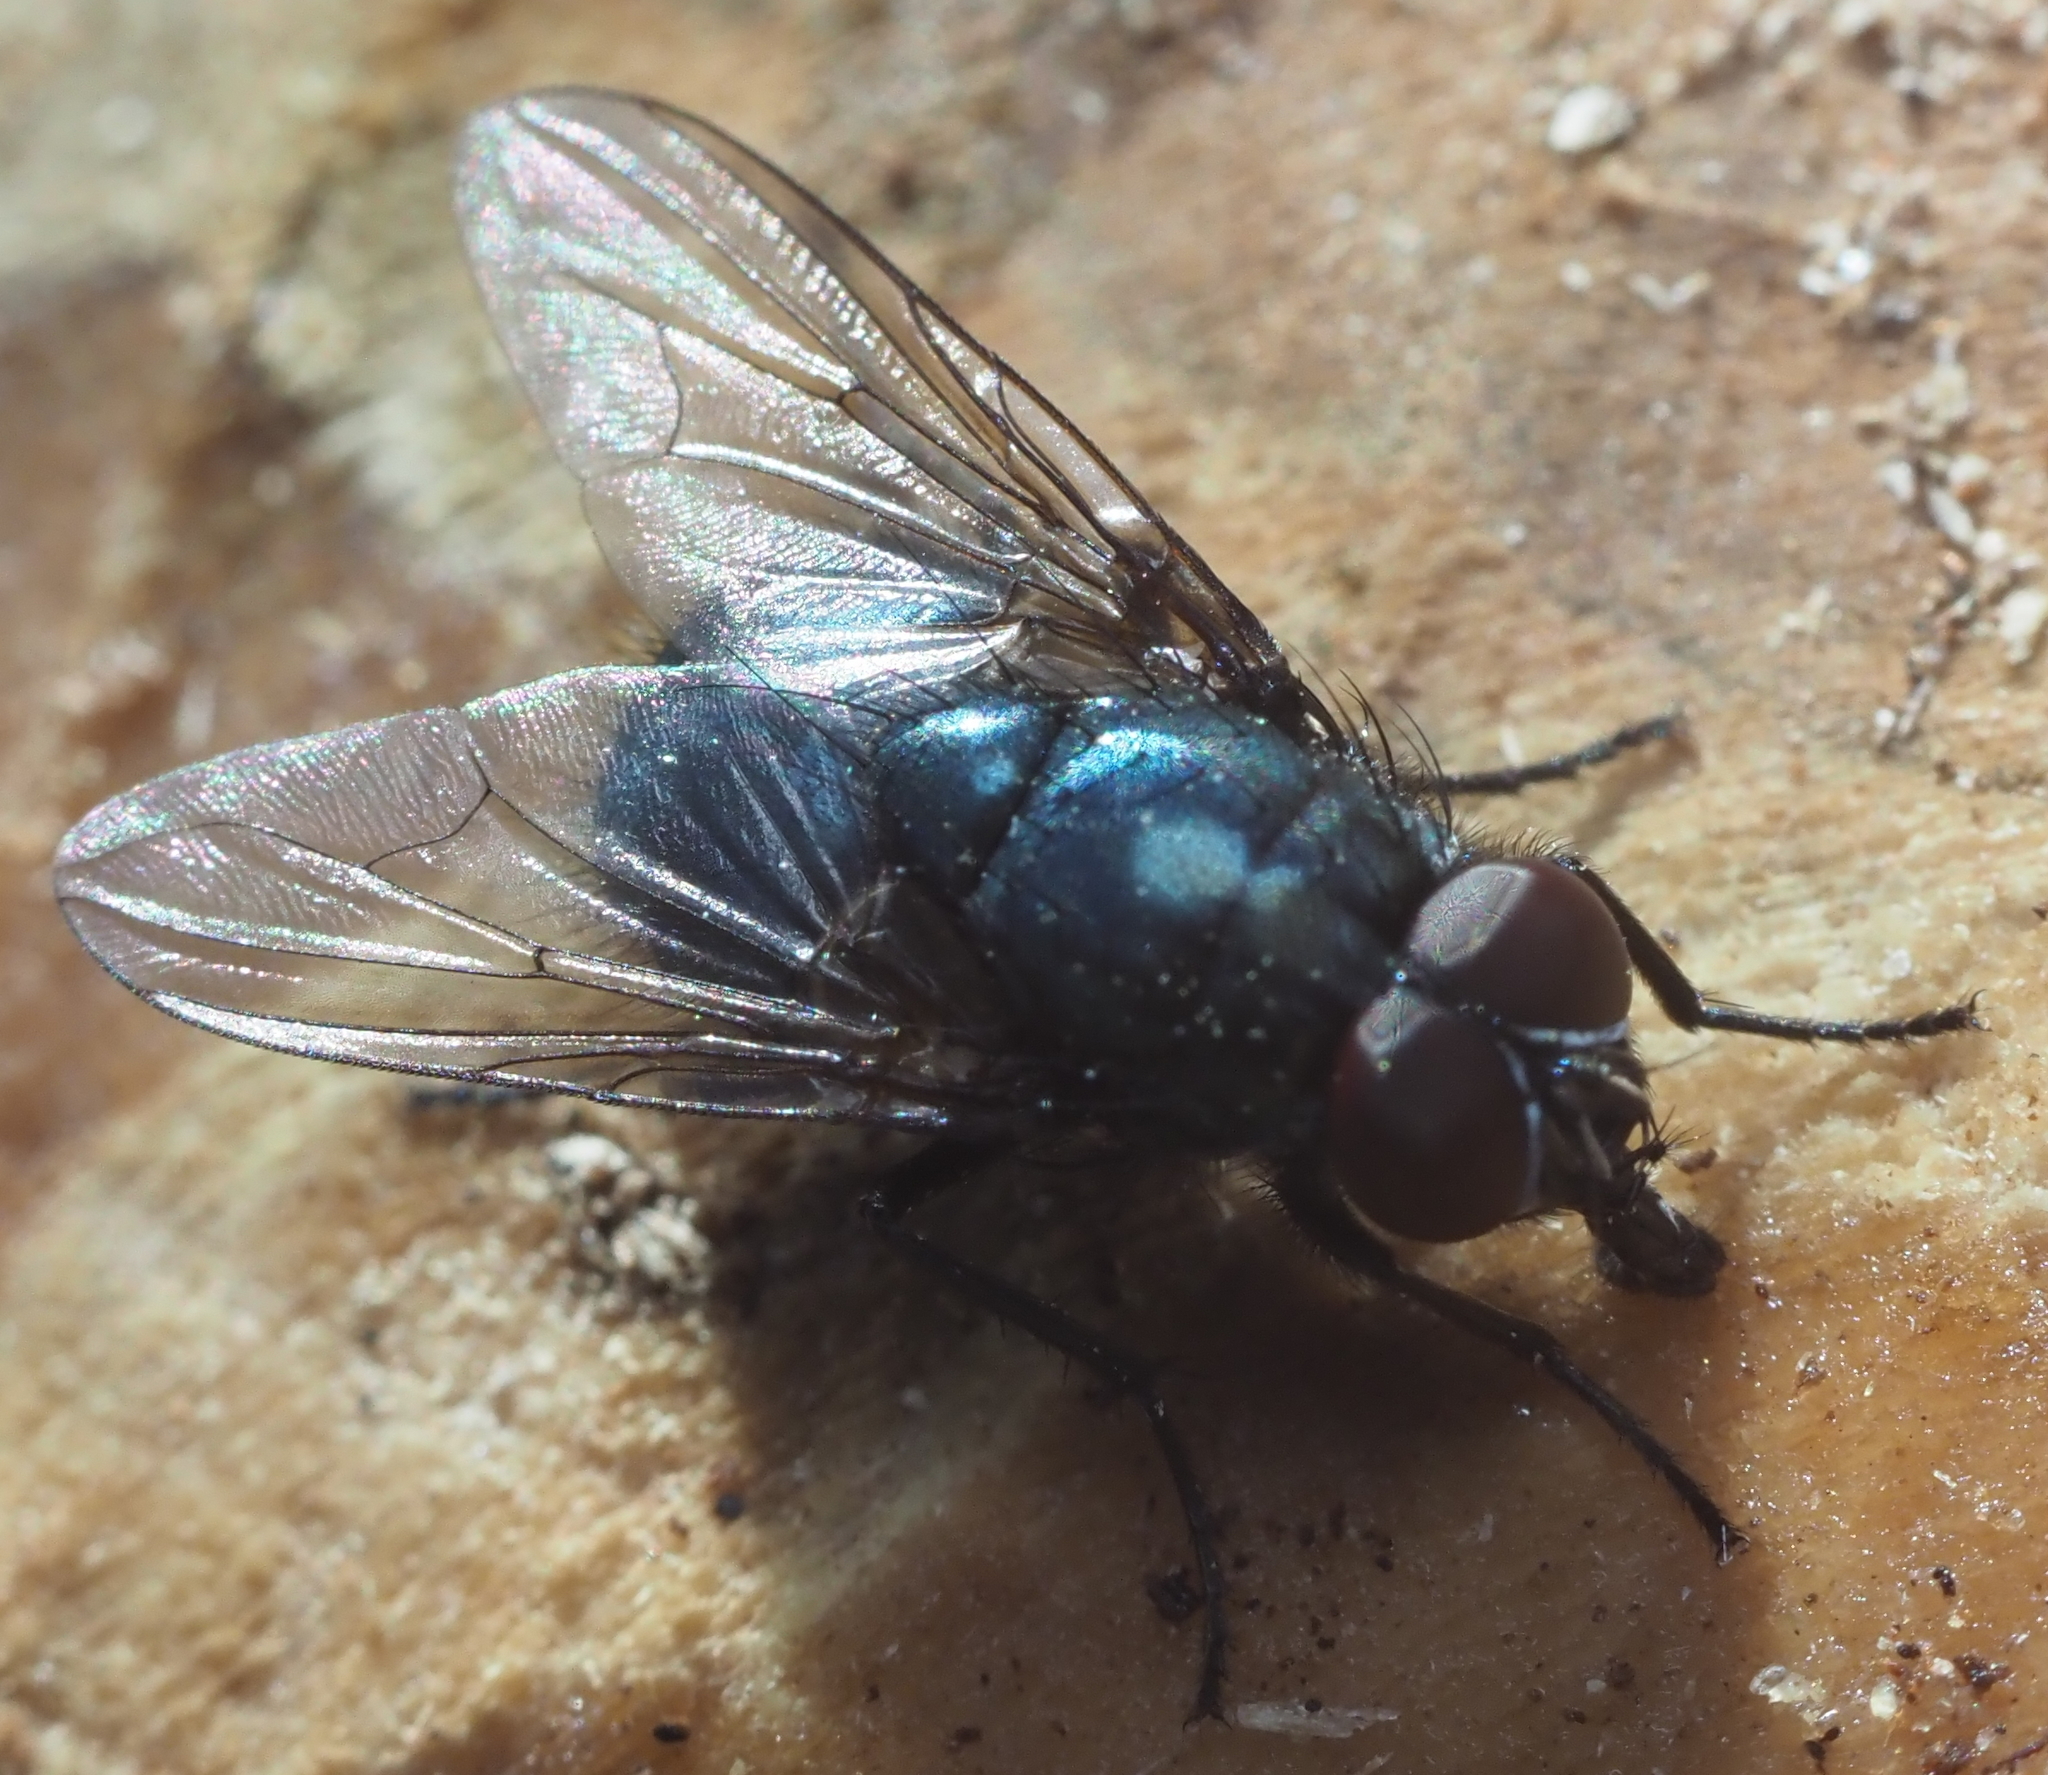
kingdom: Animalia
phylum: Arthropoda
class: Insecta
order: Diptera
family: Muscidae
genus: Eudasyphora
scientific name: Eudasyphora
